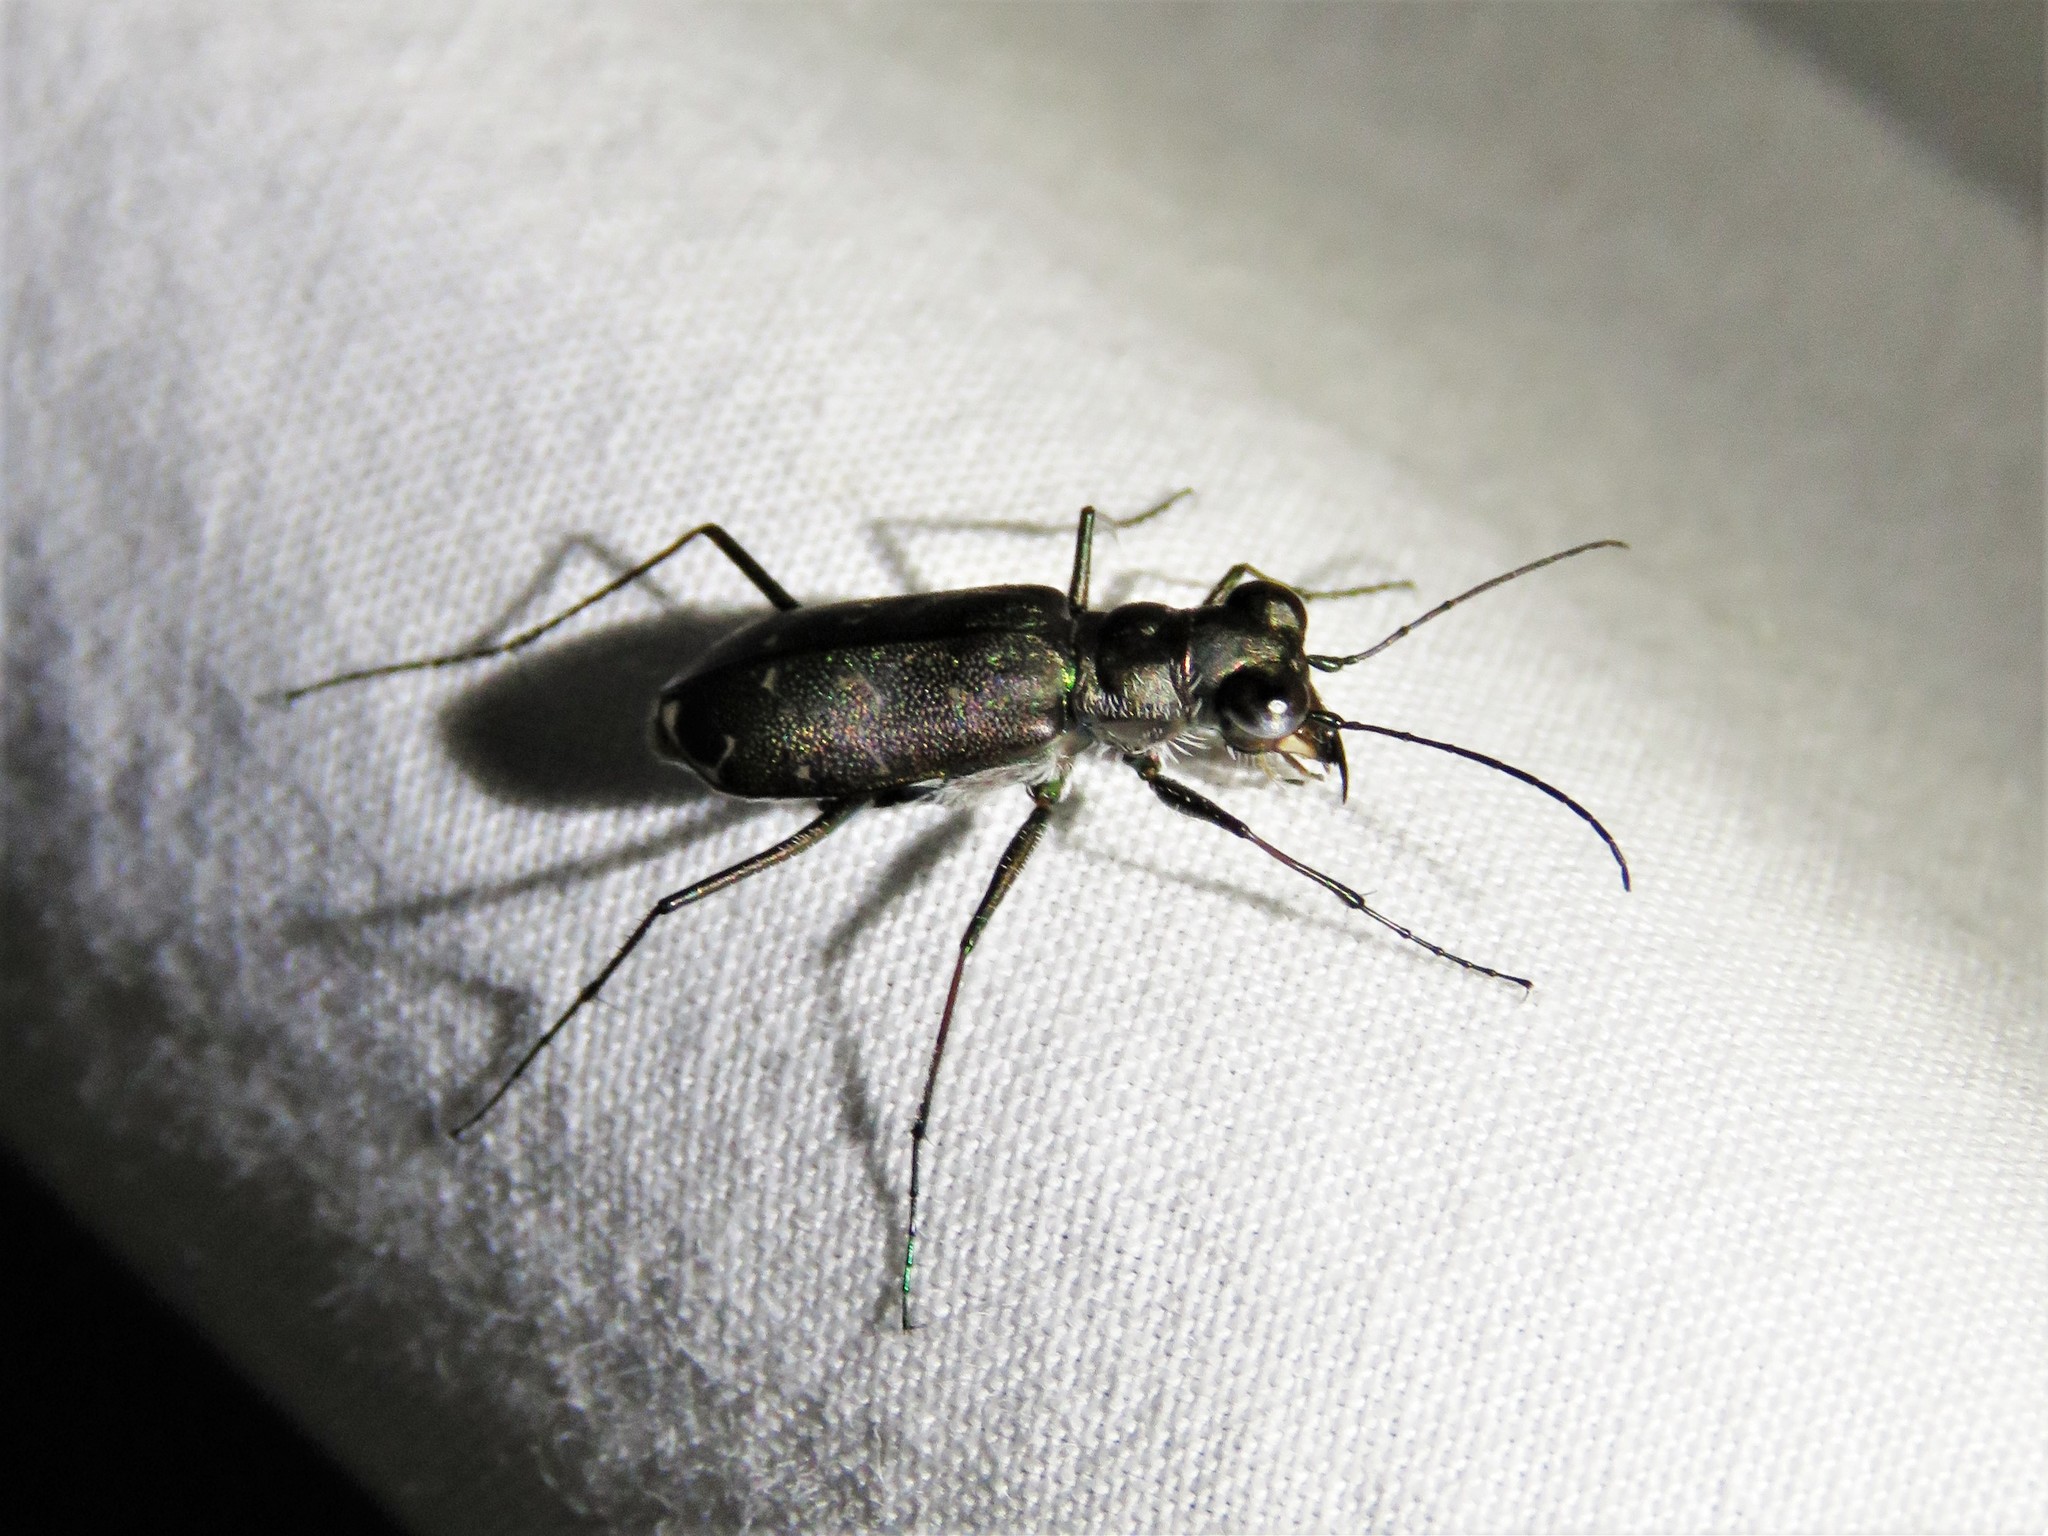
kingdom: Animalia
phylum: Arthropoda
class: Insecta
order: Coleoptera
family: Carabidae
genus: Cicindela
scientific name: Cicindela trifasciata
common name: Mudflat tiger beetle
